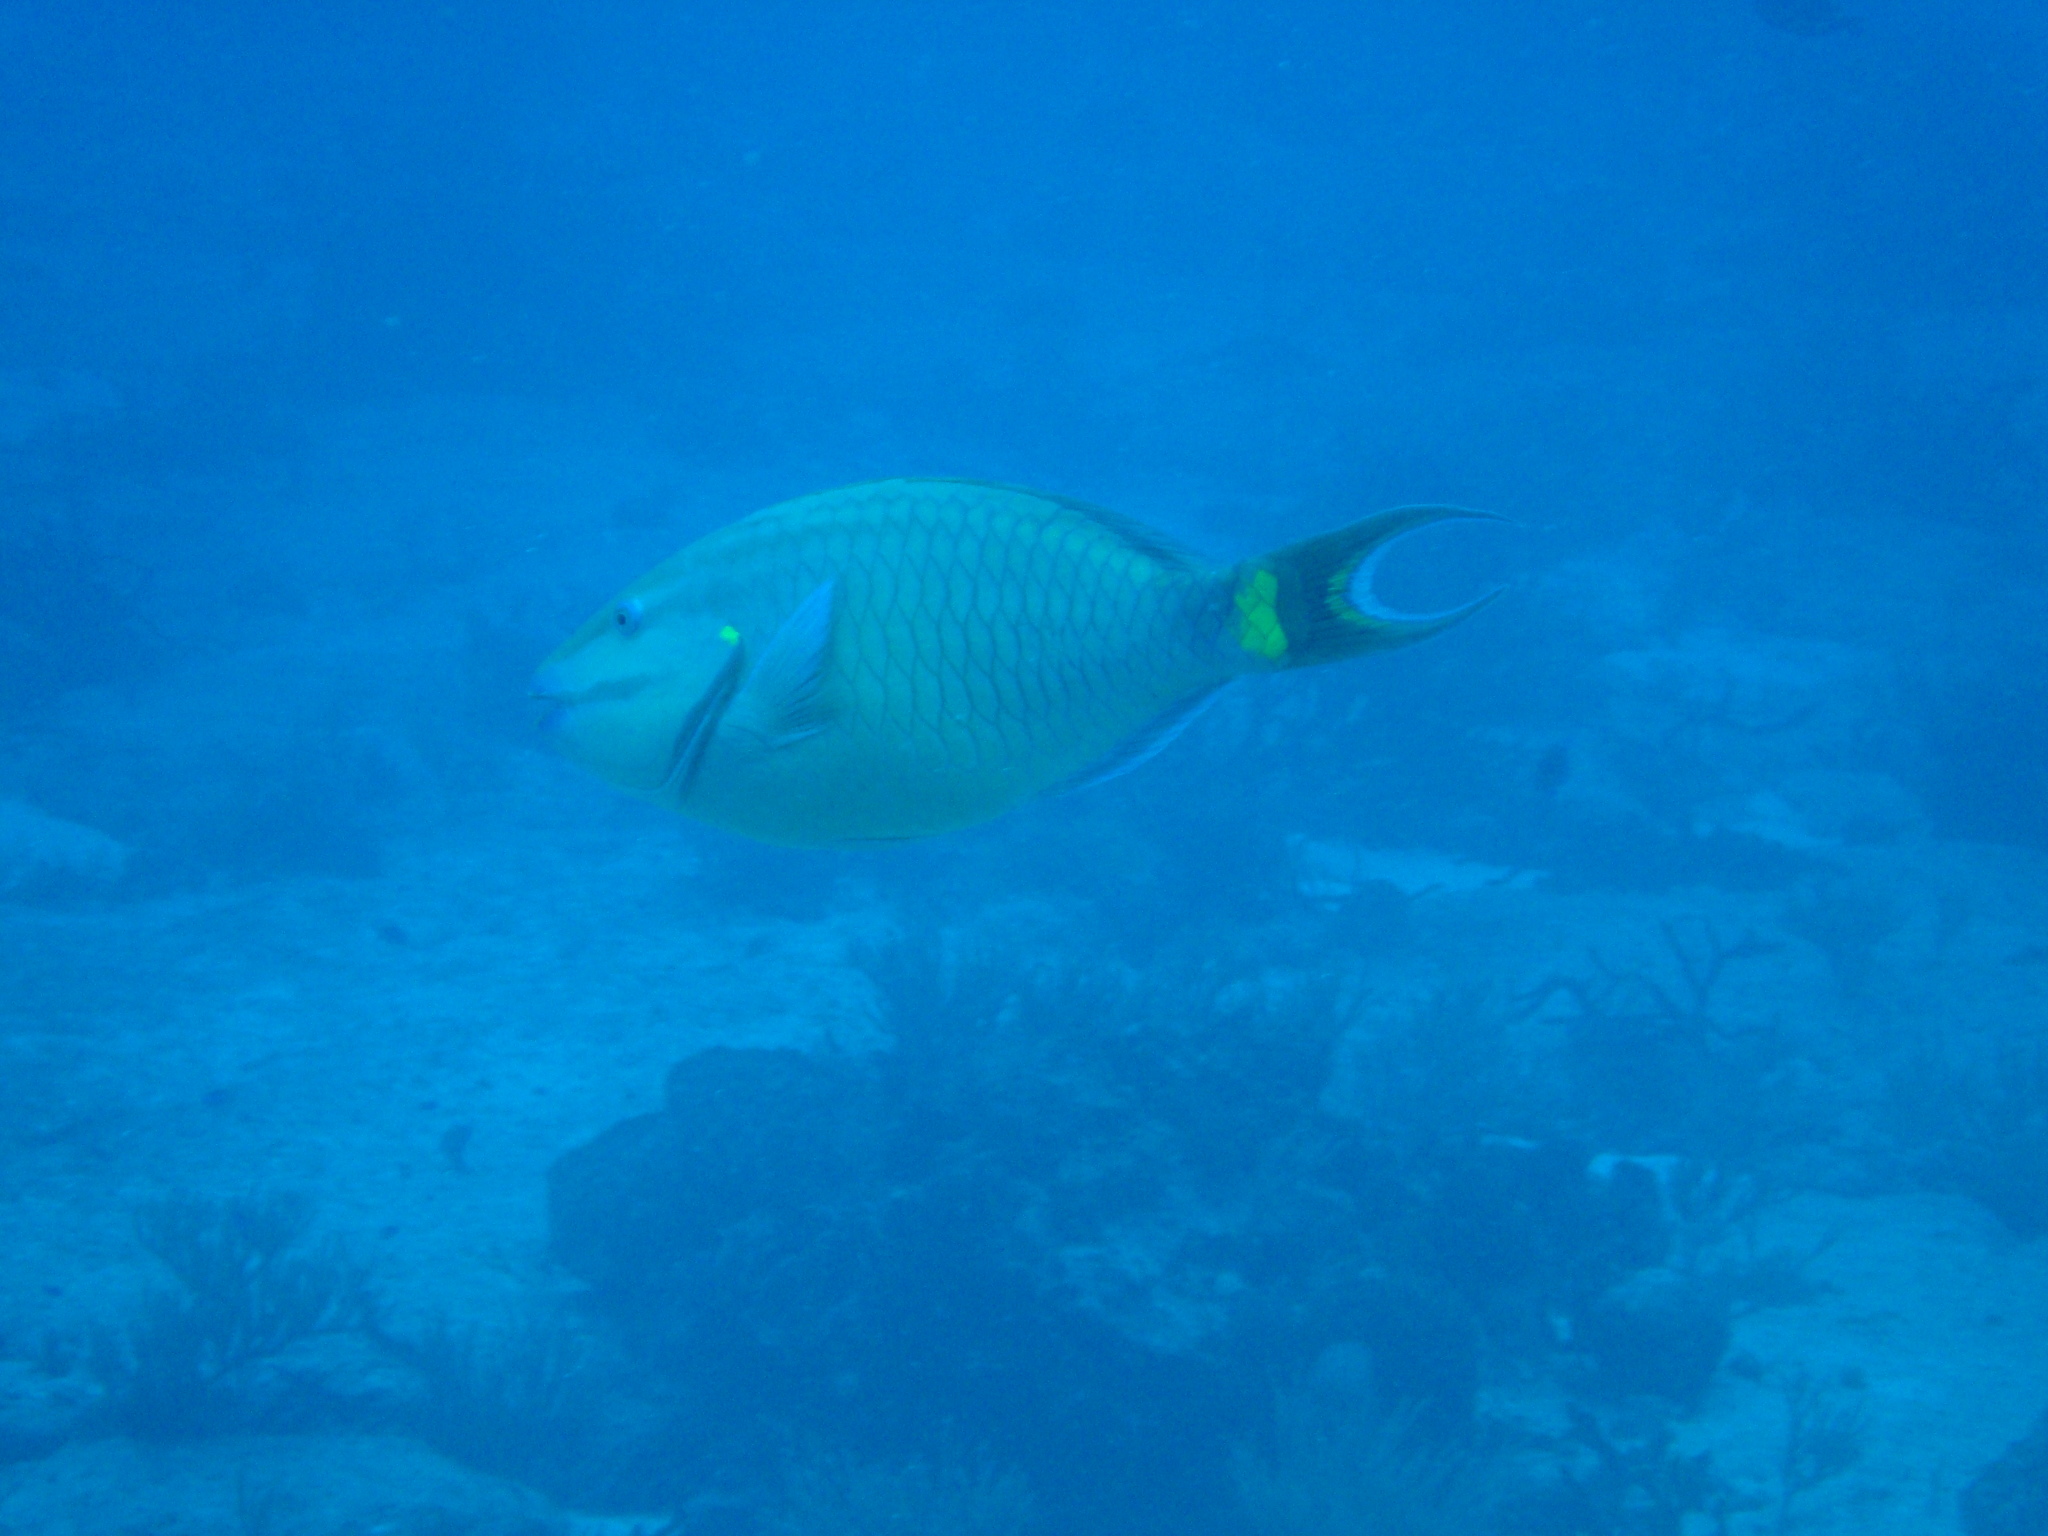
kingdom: Animalia
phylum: Chordata
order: Perciformes
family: Scaridae
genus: Sparisoma
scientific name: Sparisoma viride
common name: Stoplight parrotfish
